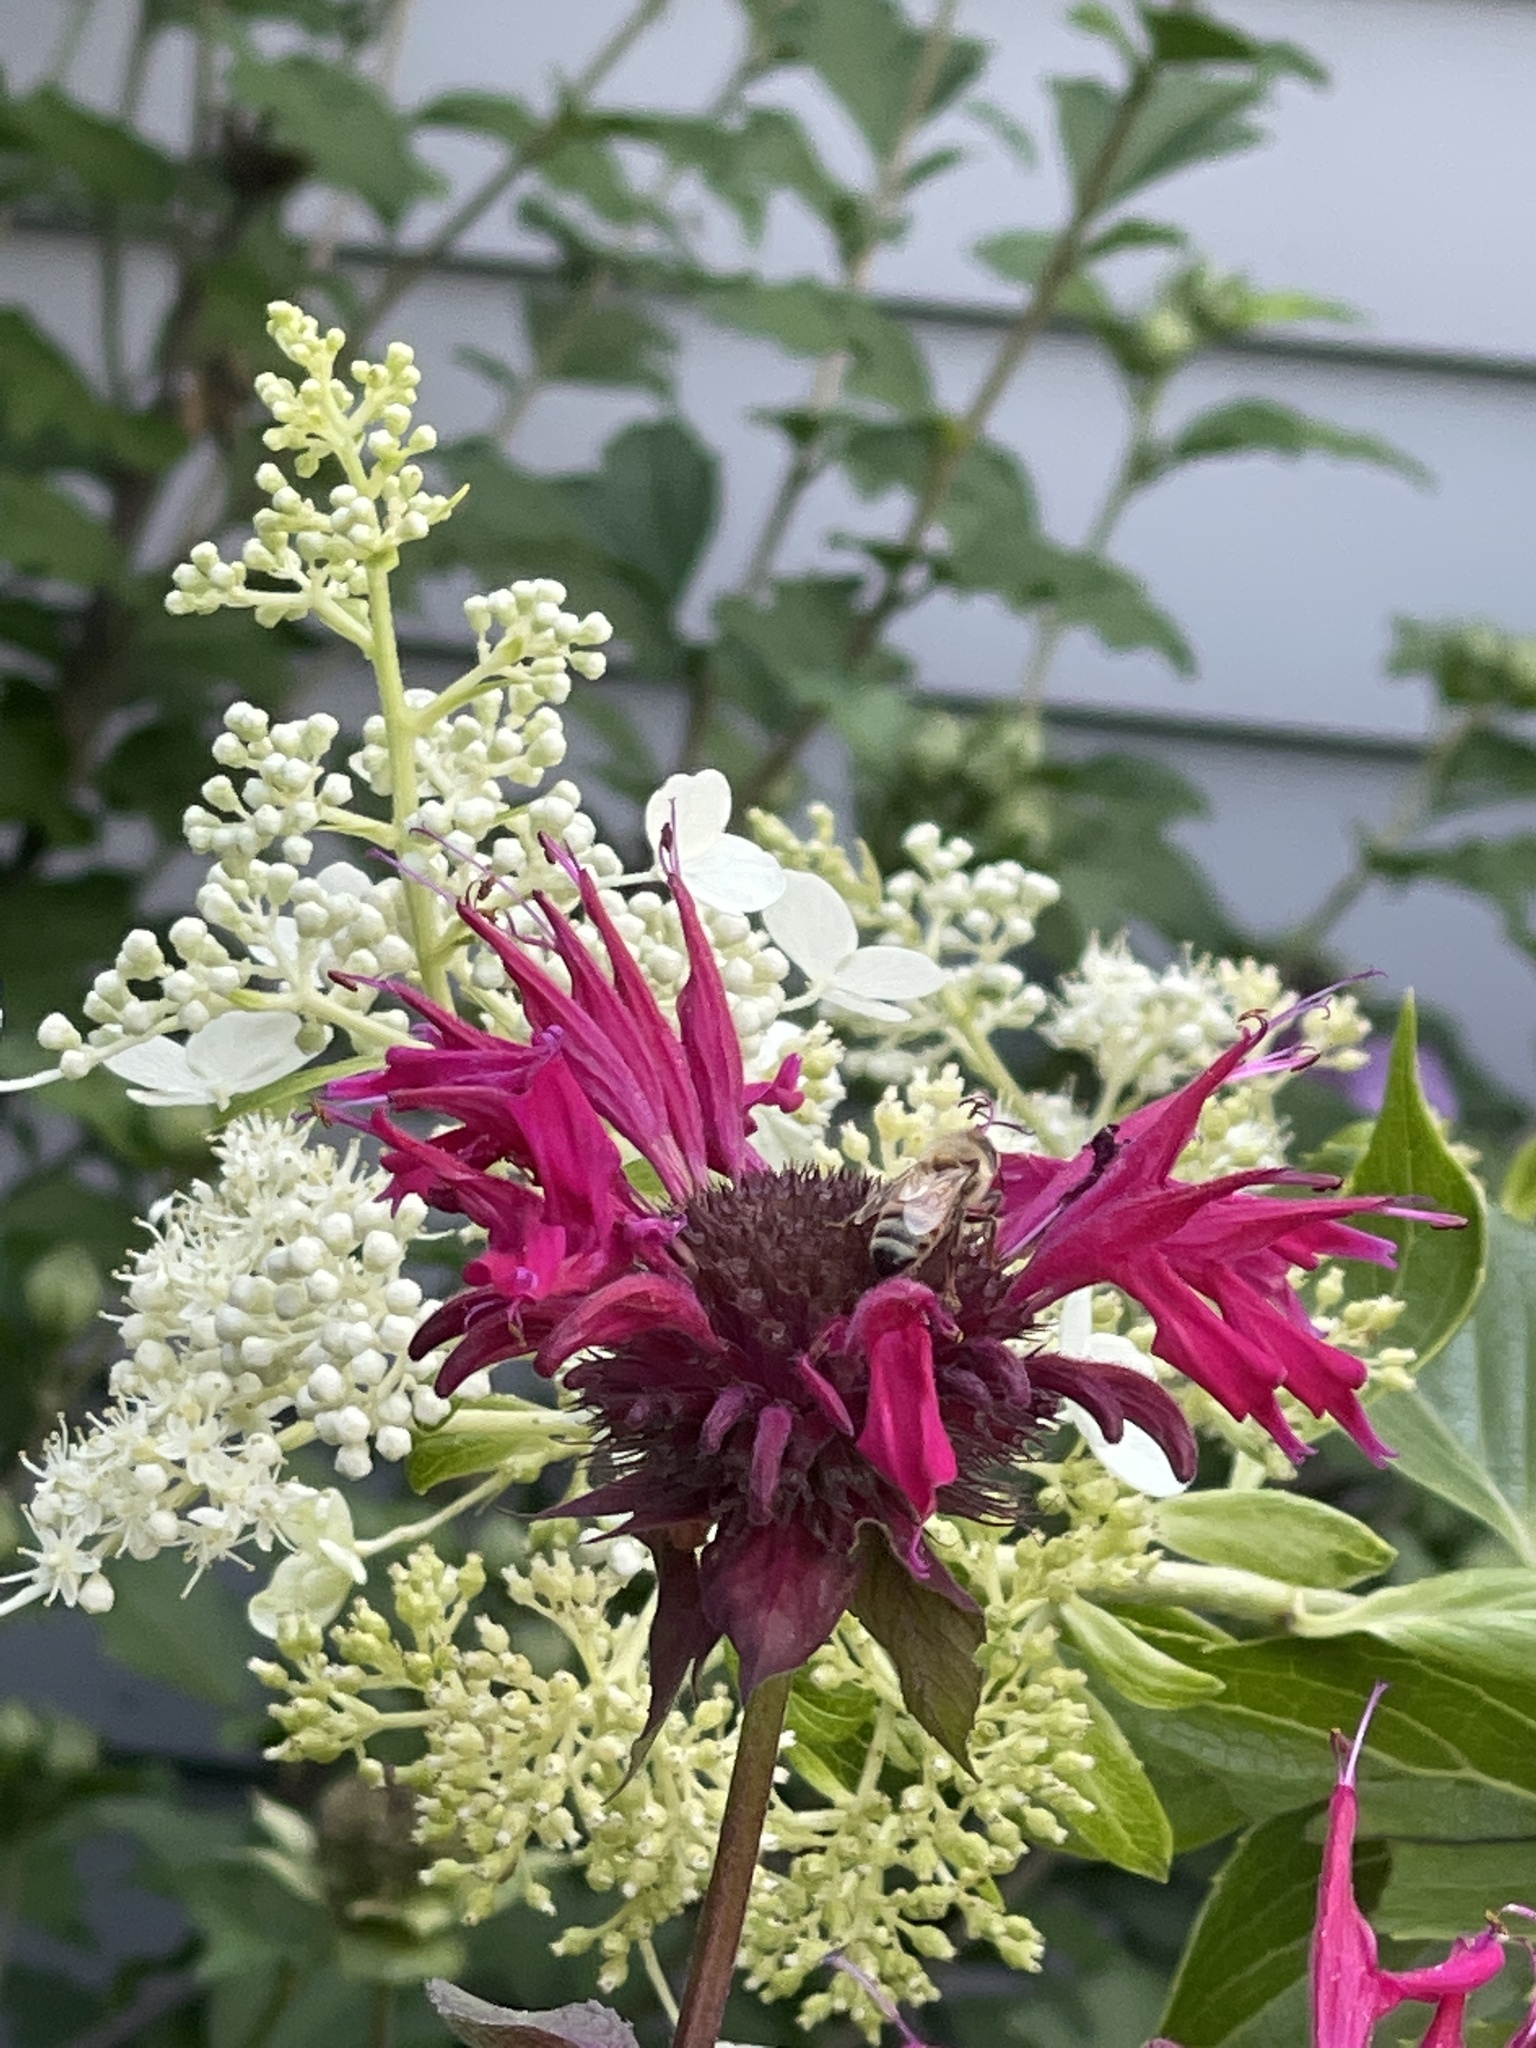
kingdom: Plantae
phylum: Tracheophyta
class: Magnoliopsida
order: Lamiales
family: Lamiaceae
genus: Monarda
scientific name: Monarda didyma
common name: Beebalm
